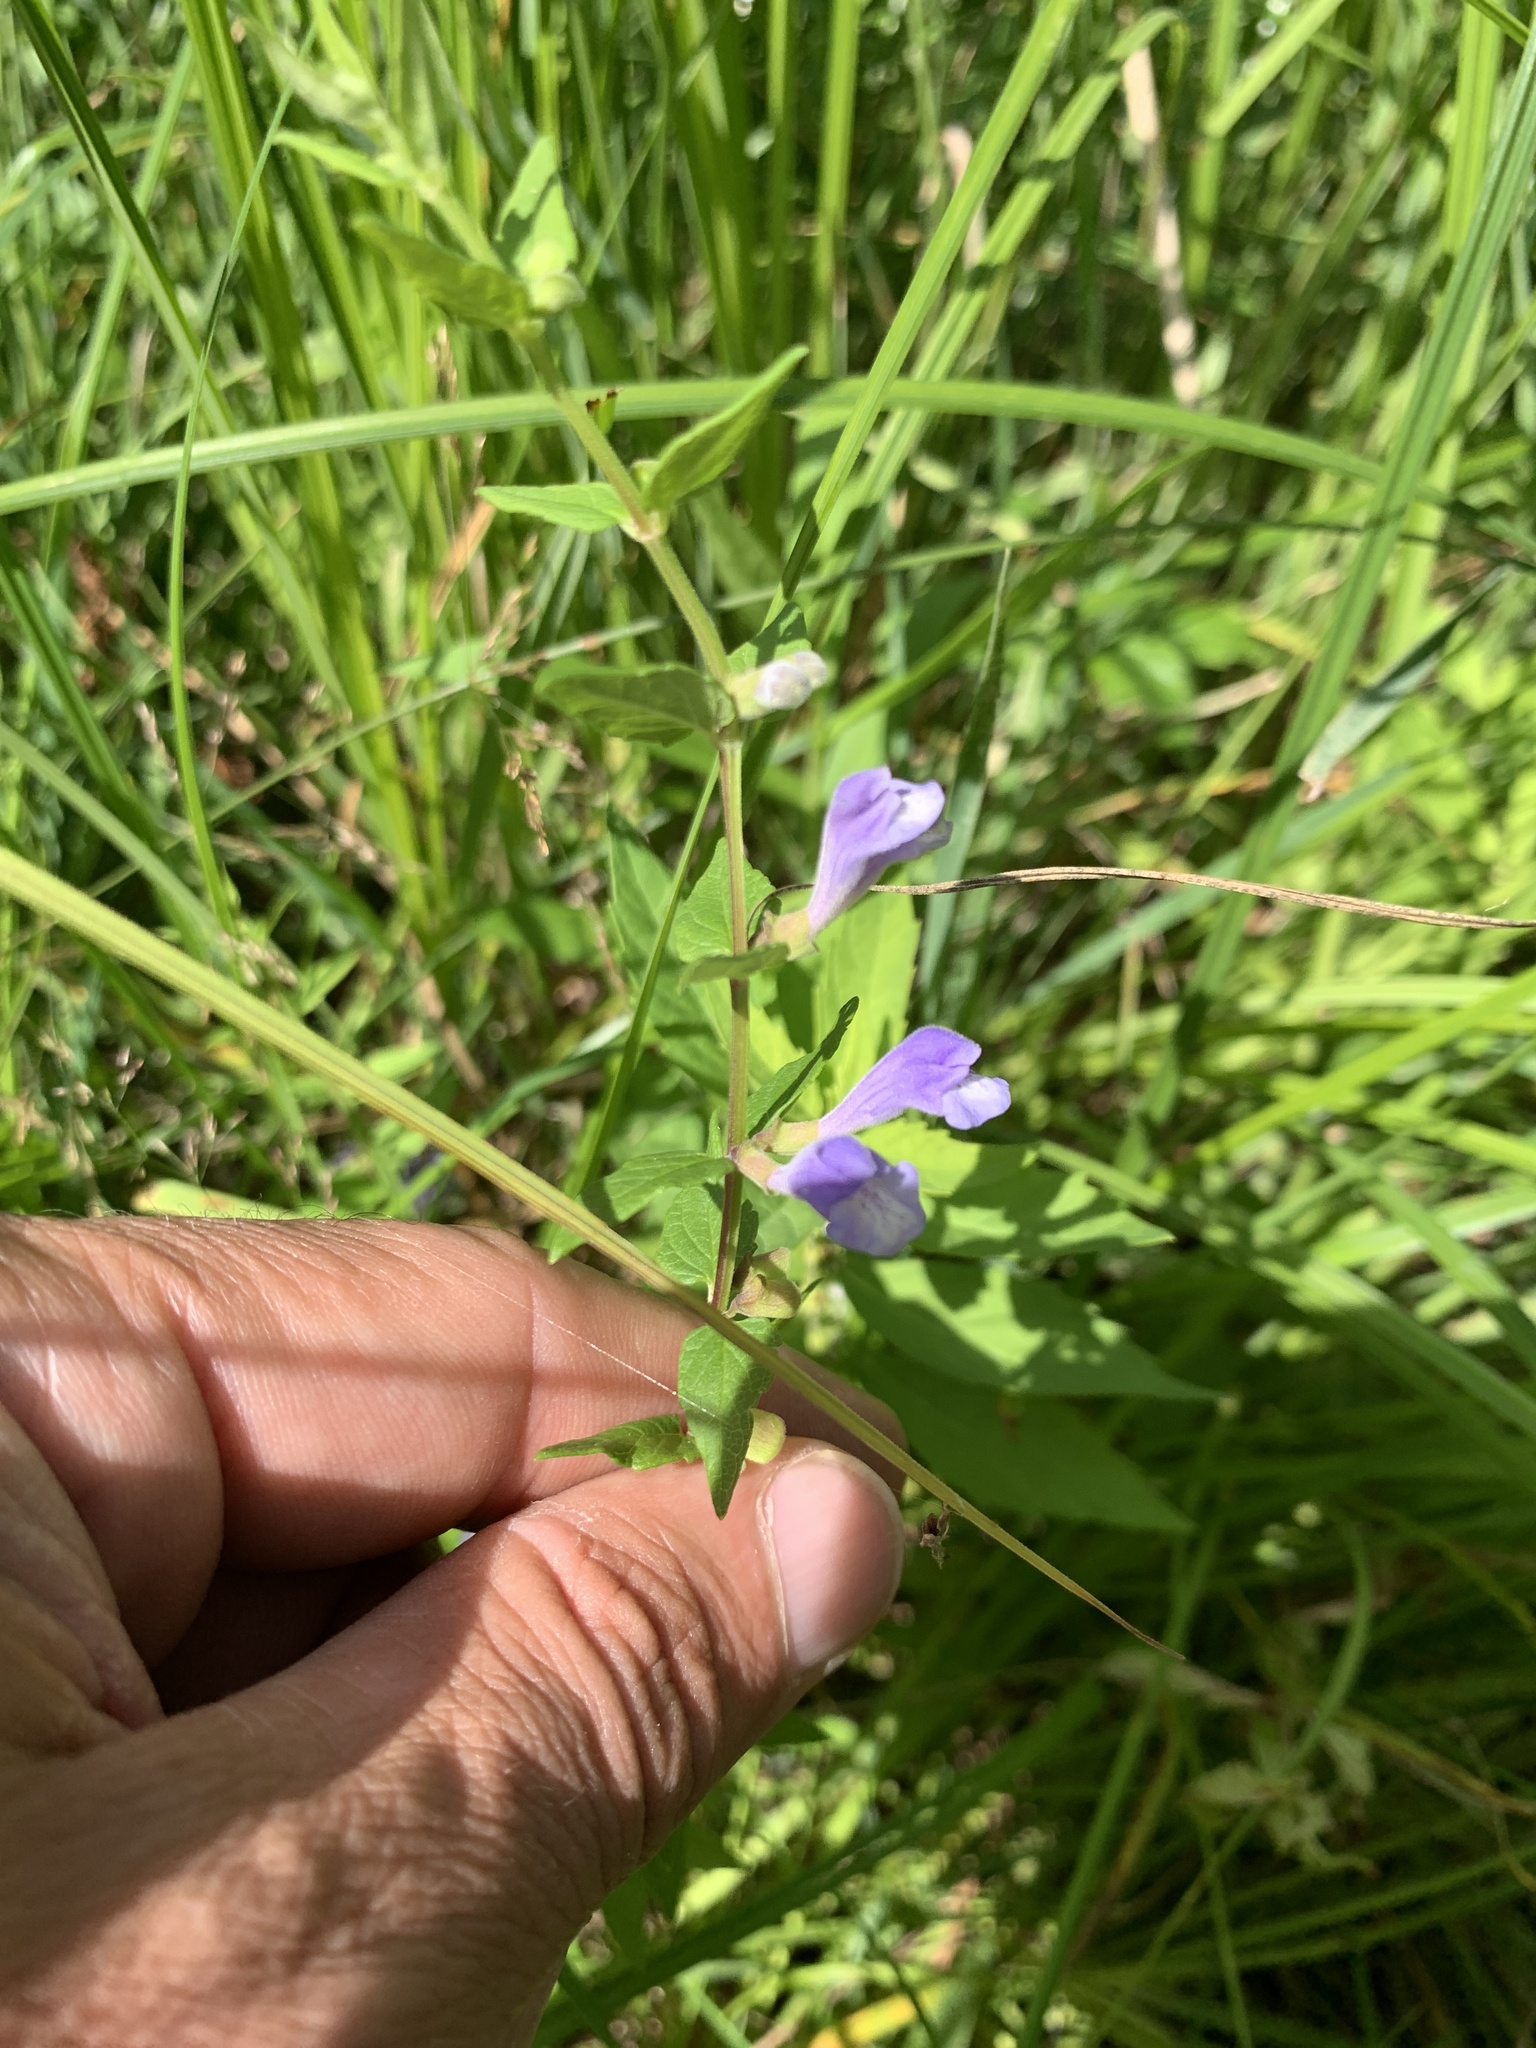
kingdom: Plantae
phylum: Tracheophyta
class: Magnoliopsida
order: Lamiales
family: Lamiaceae
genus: Scutellaria
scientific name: Scutellaria galericulata
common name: Skullcap
